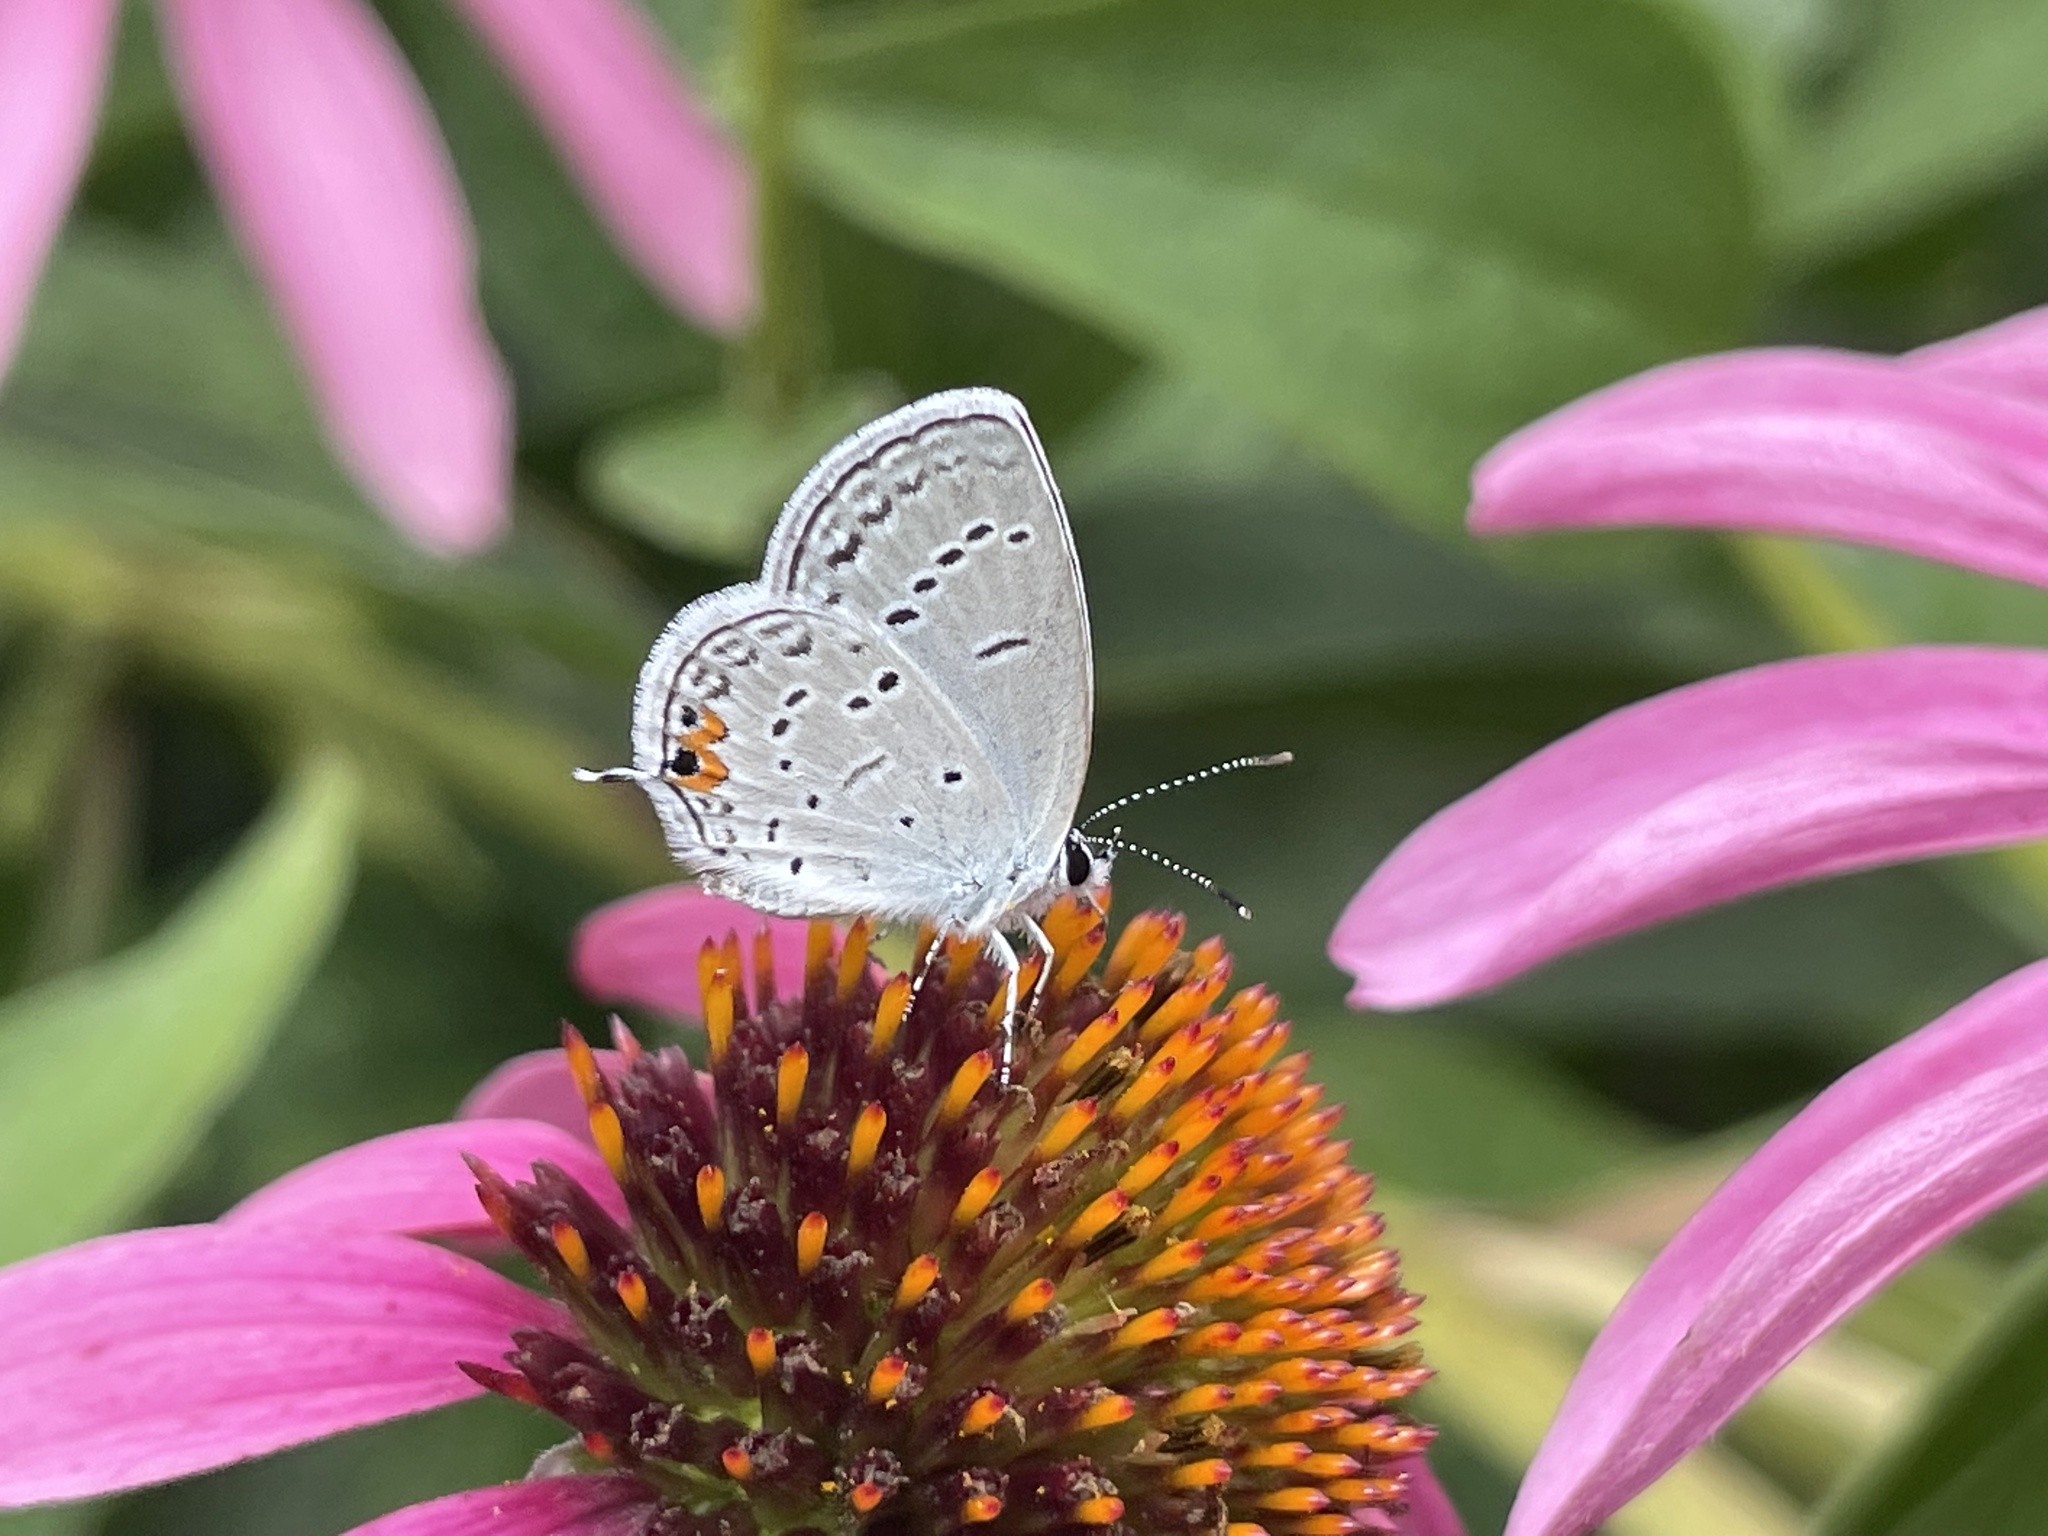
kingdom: Animalia
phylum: Arthropoda
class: Insecta
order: Lepidoptera
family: Lycaenidae
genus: Elkalyce
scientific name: Elkalyce comyntas
